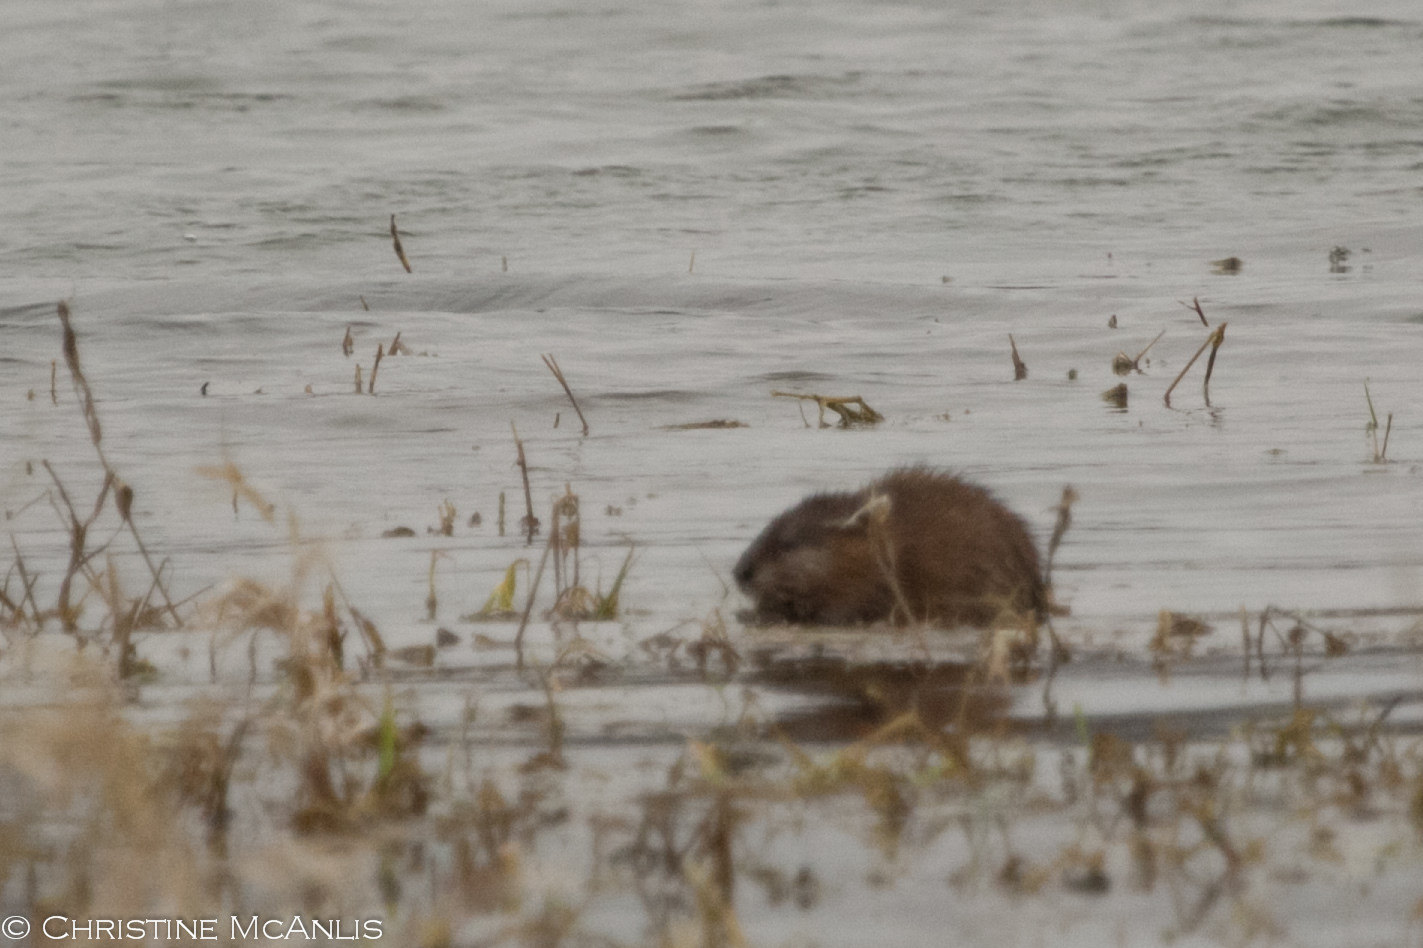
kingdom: Animalia
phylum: Chordata
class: Mammalia
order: Rodentia
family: Cricetidae
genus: Ondatra
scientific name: Ondatra zibethicus
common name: Muskrat
